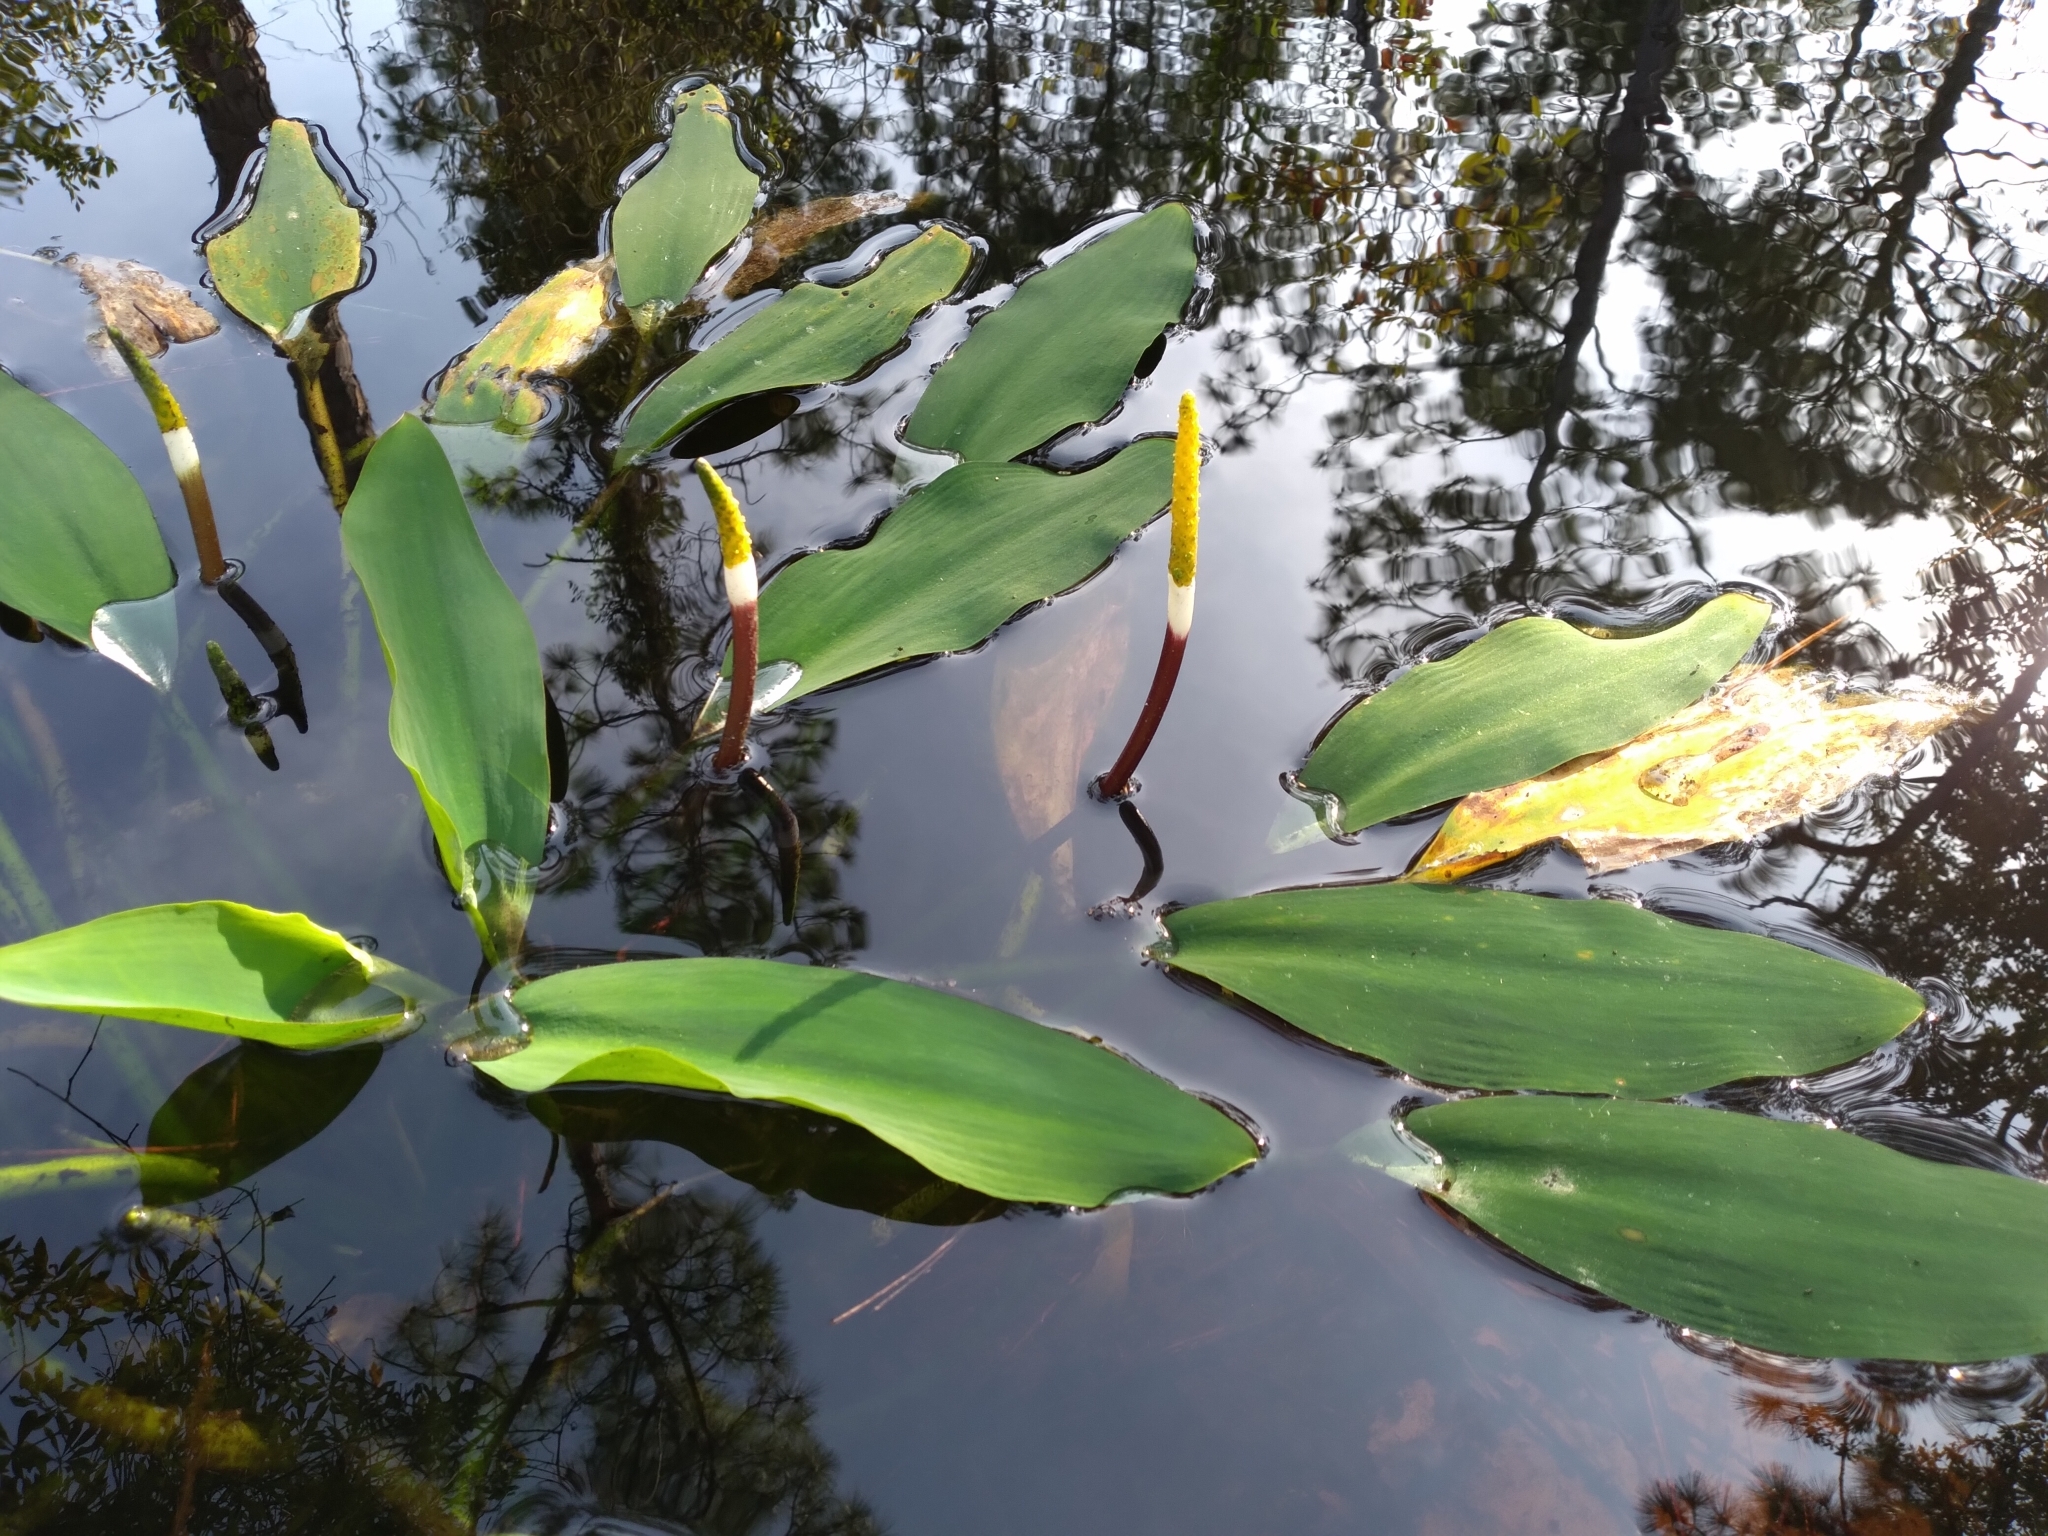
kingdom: Plantae
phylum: Tracheophyta
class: Liliopsida
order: Alismatales
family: Araceae
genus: Orontium
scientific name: Orontium aquaticum
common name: Golden-club
